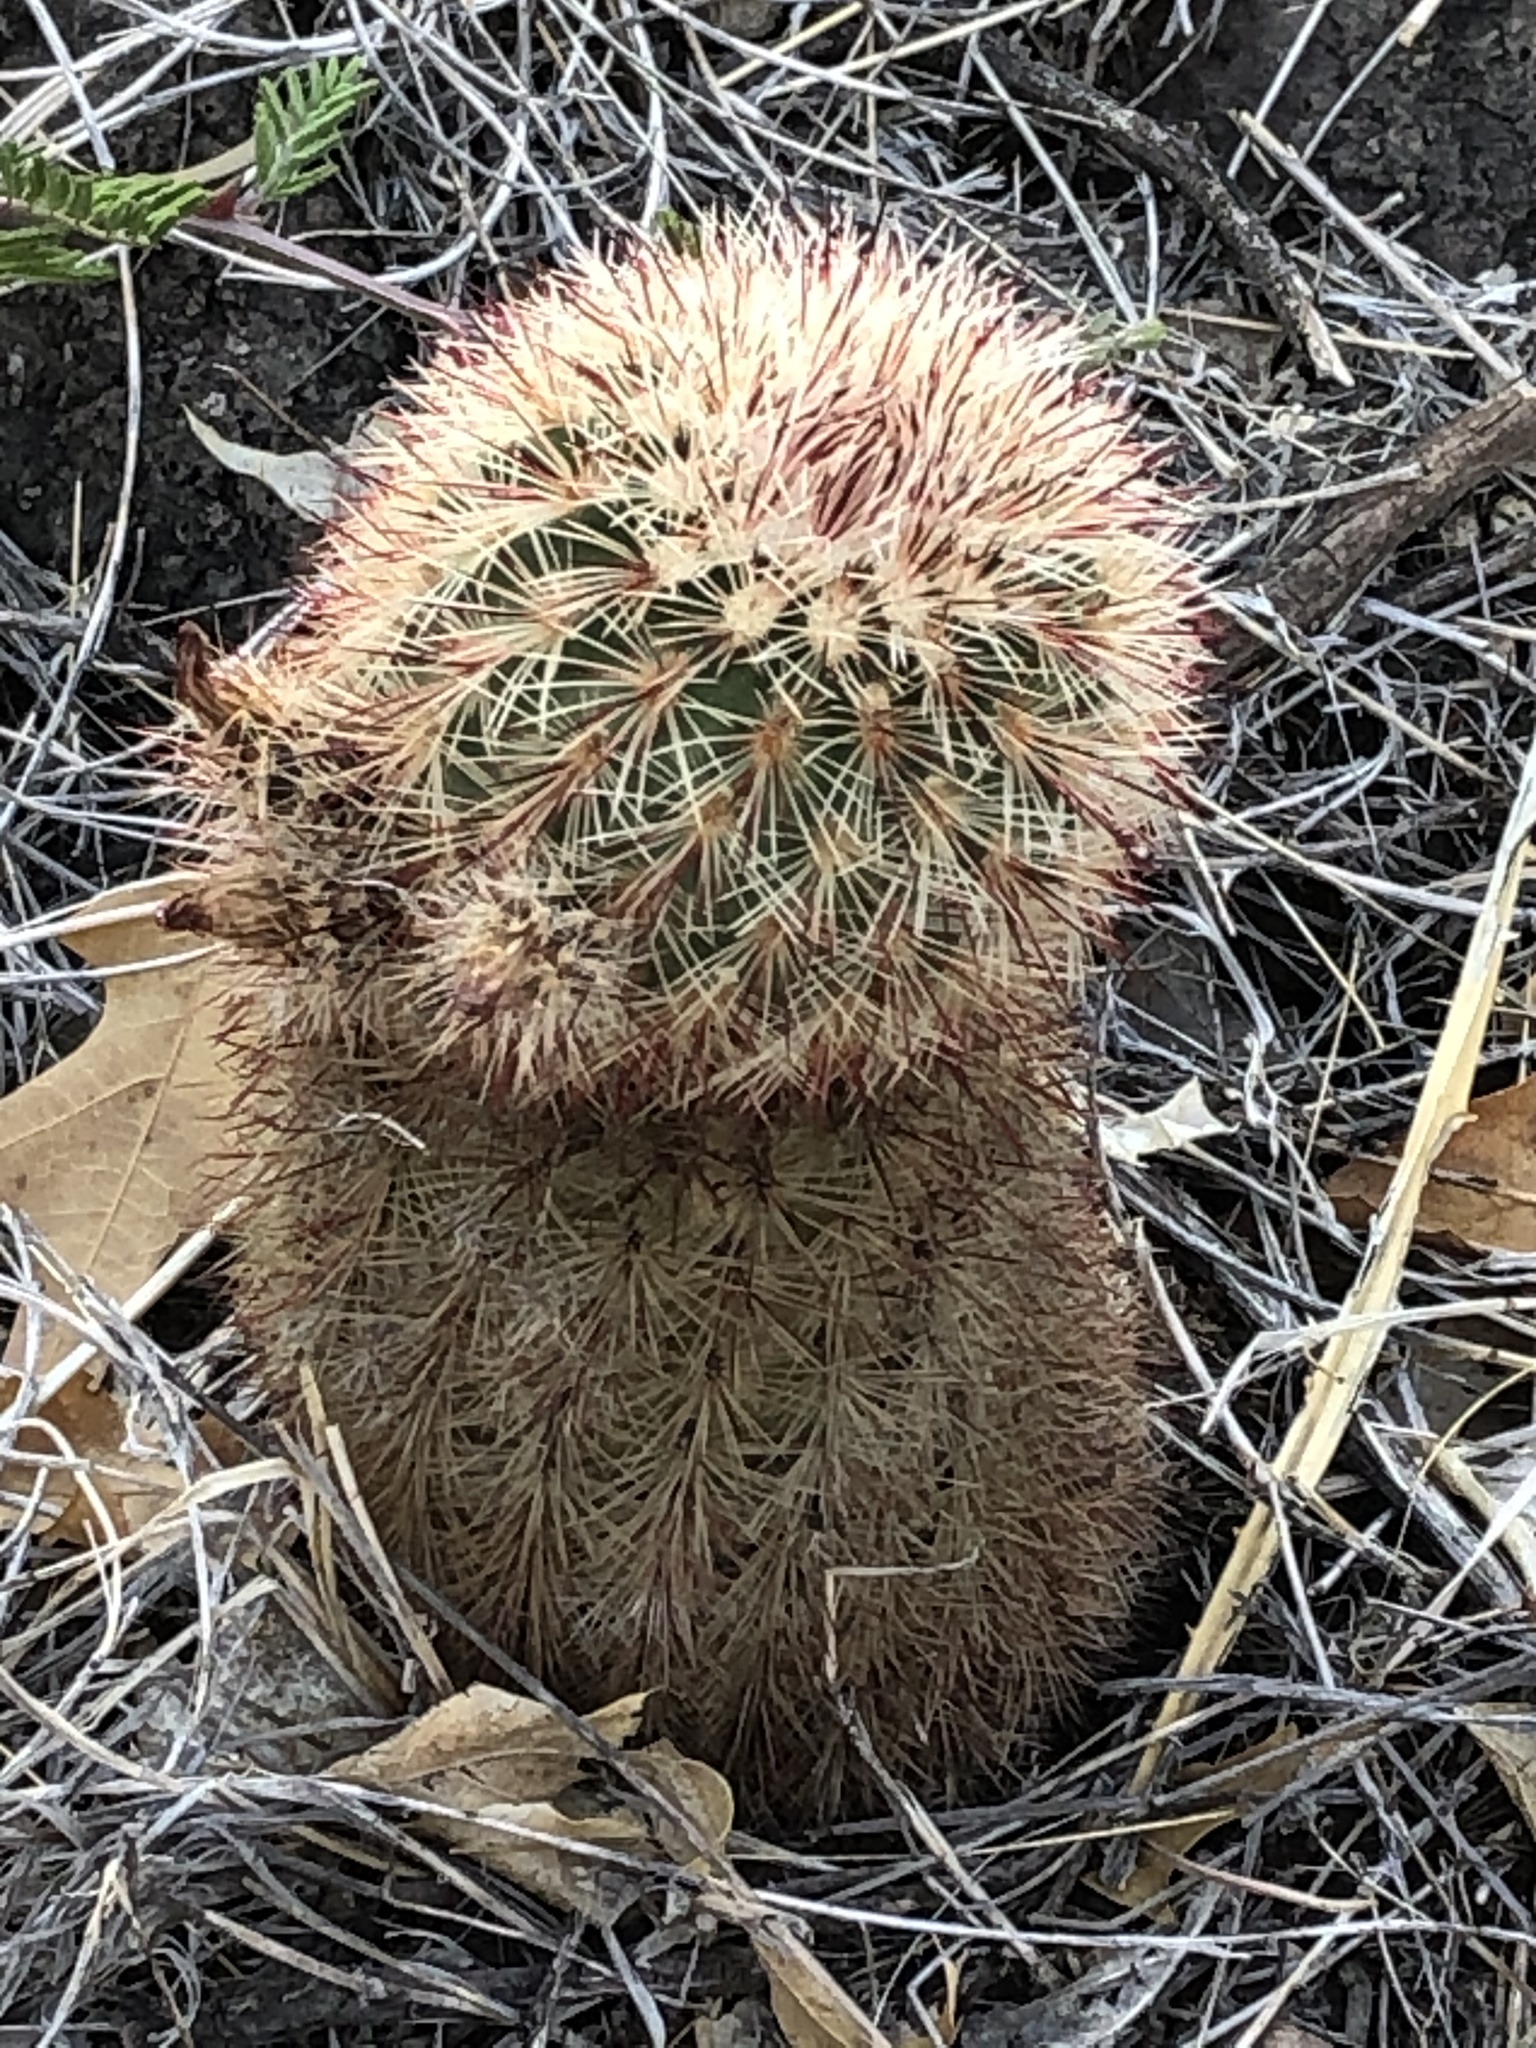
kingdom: Plantae
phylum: Tracheophyta
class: Magnoliopsida
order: Caryophyllales
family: Cactaceae
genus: Echinocereus
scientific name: Echinocereus russanthus
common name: Brownspine hedgehog cactus
